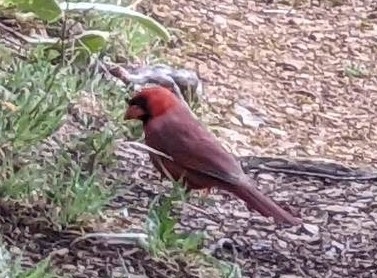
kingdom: Animalia
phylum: Chordata
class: Aves
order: Passeriformes
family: Cardinalidae
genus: Cardinalis
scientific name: Cardinalis cardinalis
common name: Northern cardinal
